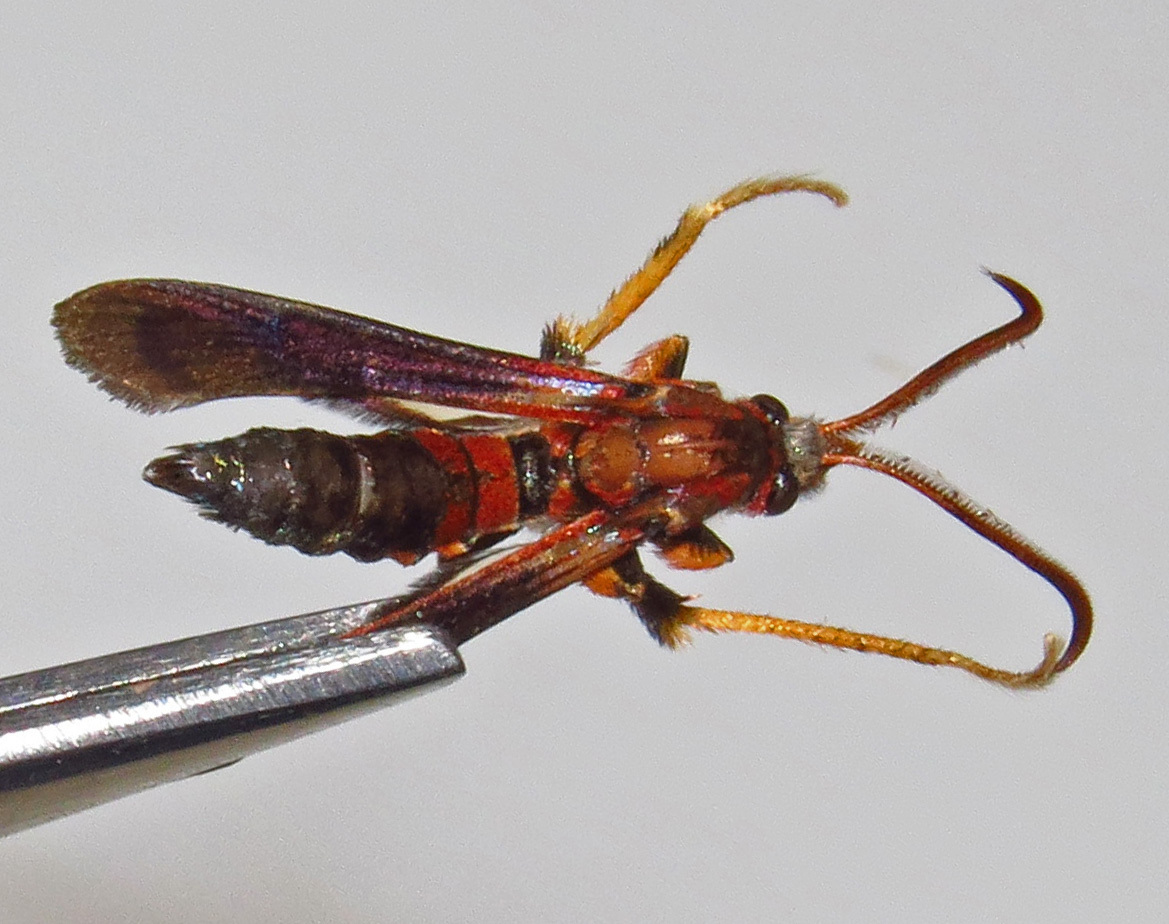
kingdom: Animalia
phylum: Arthropoda
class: Insecta
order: Lepidoptera
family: Sesiidae
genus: Podosesia
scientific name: Podosesia syringae
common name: Lilac borer moth
